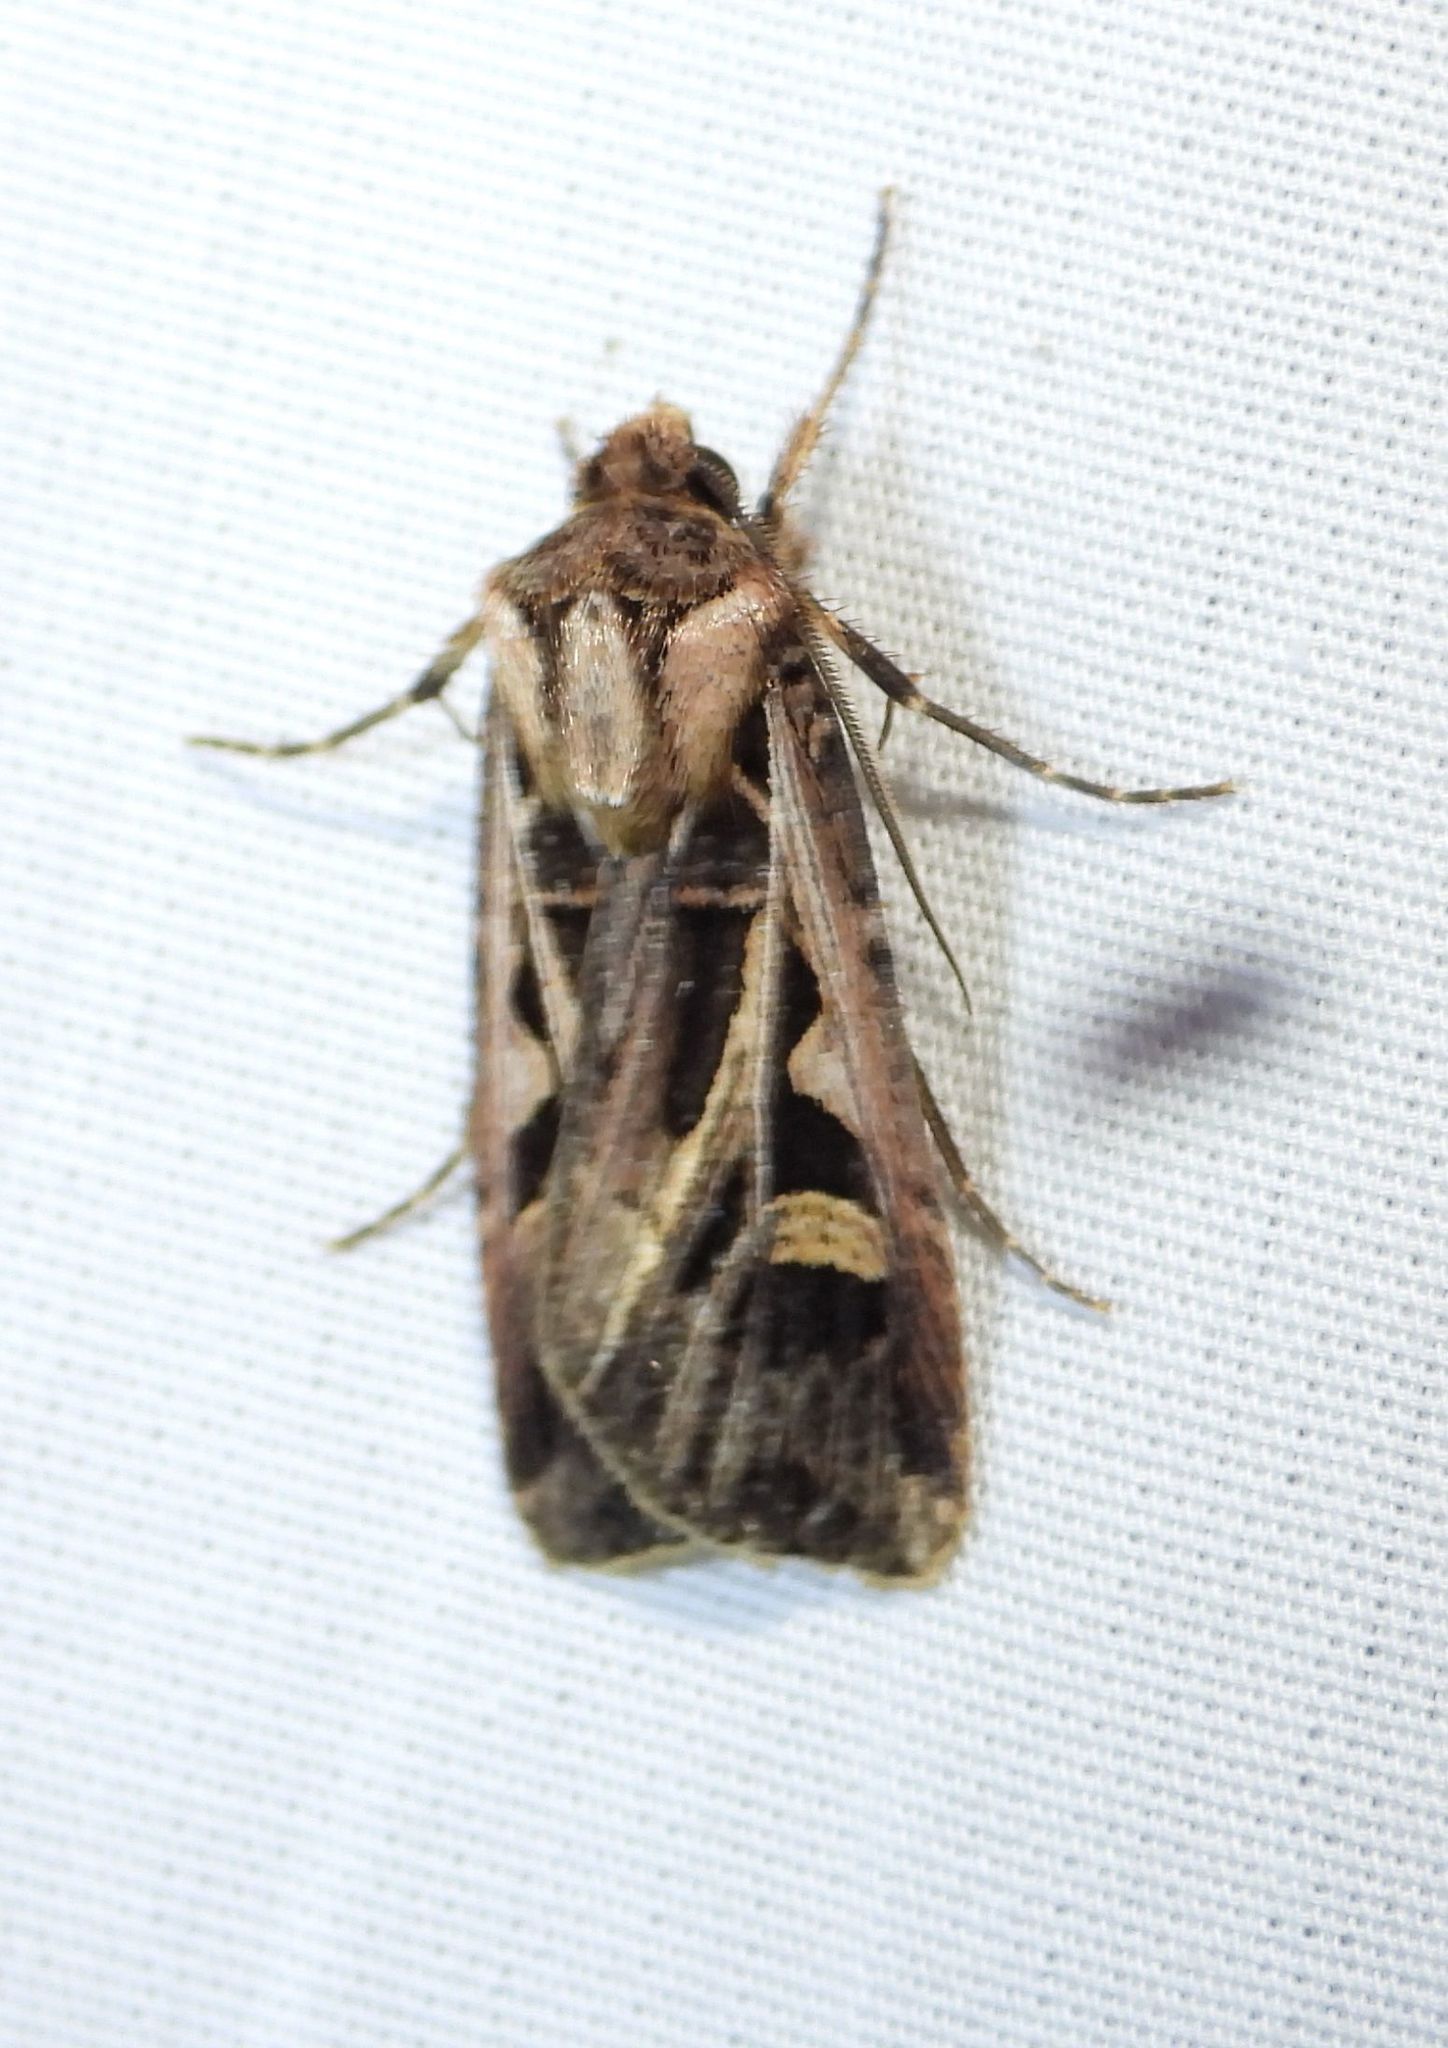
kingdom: Animalia
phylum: Arthropoda
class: Insecta
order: Lepidoptera
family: Noctuidae
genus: Feltia
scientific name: Feltia jaculifera
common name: Dingy cutworm moth
